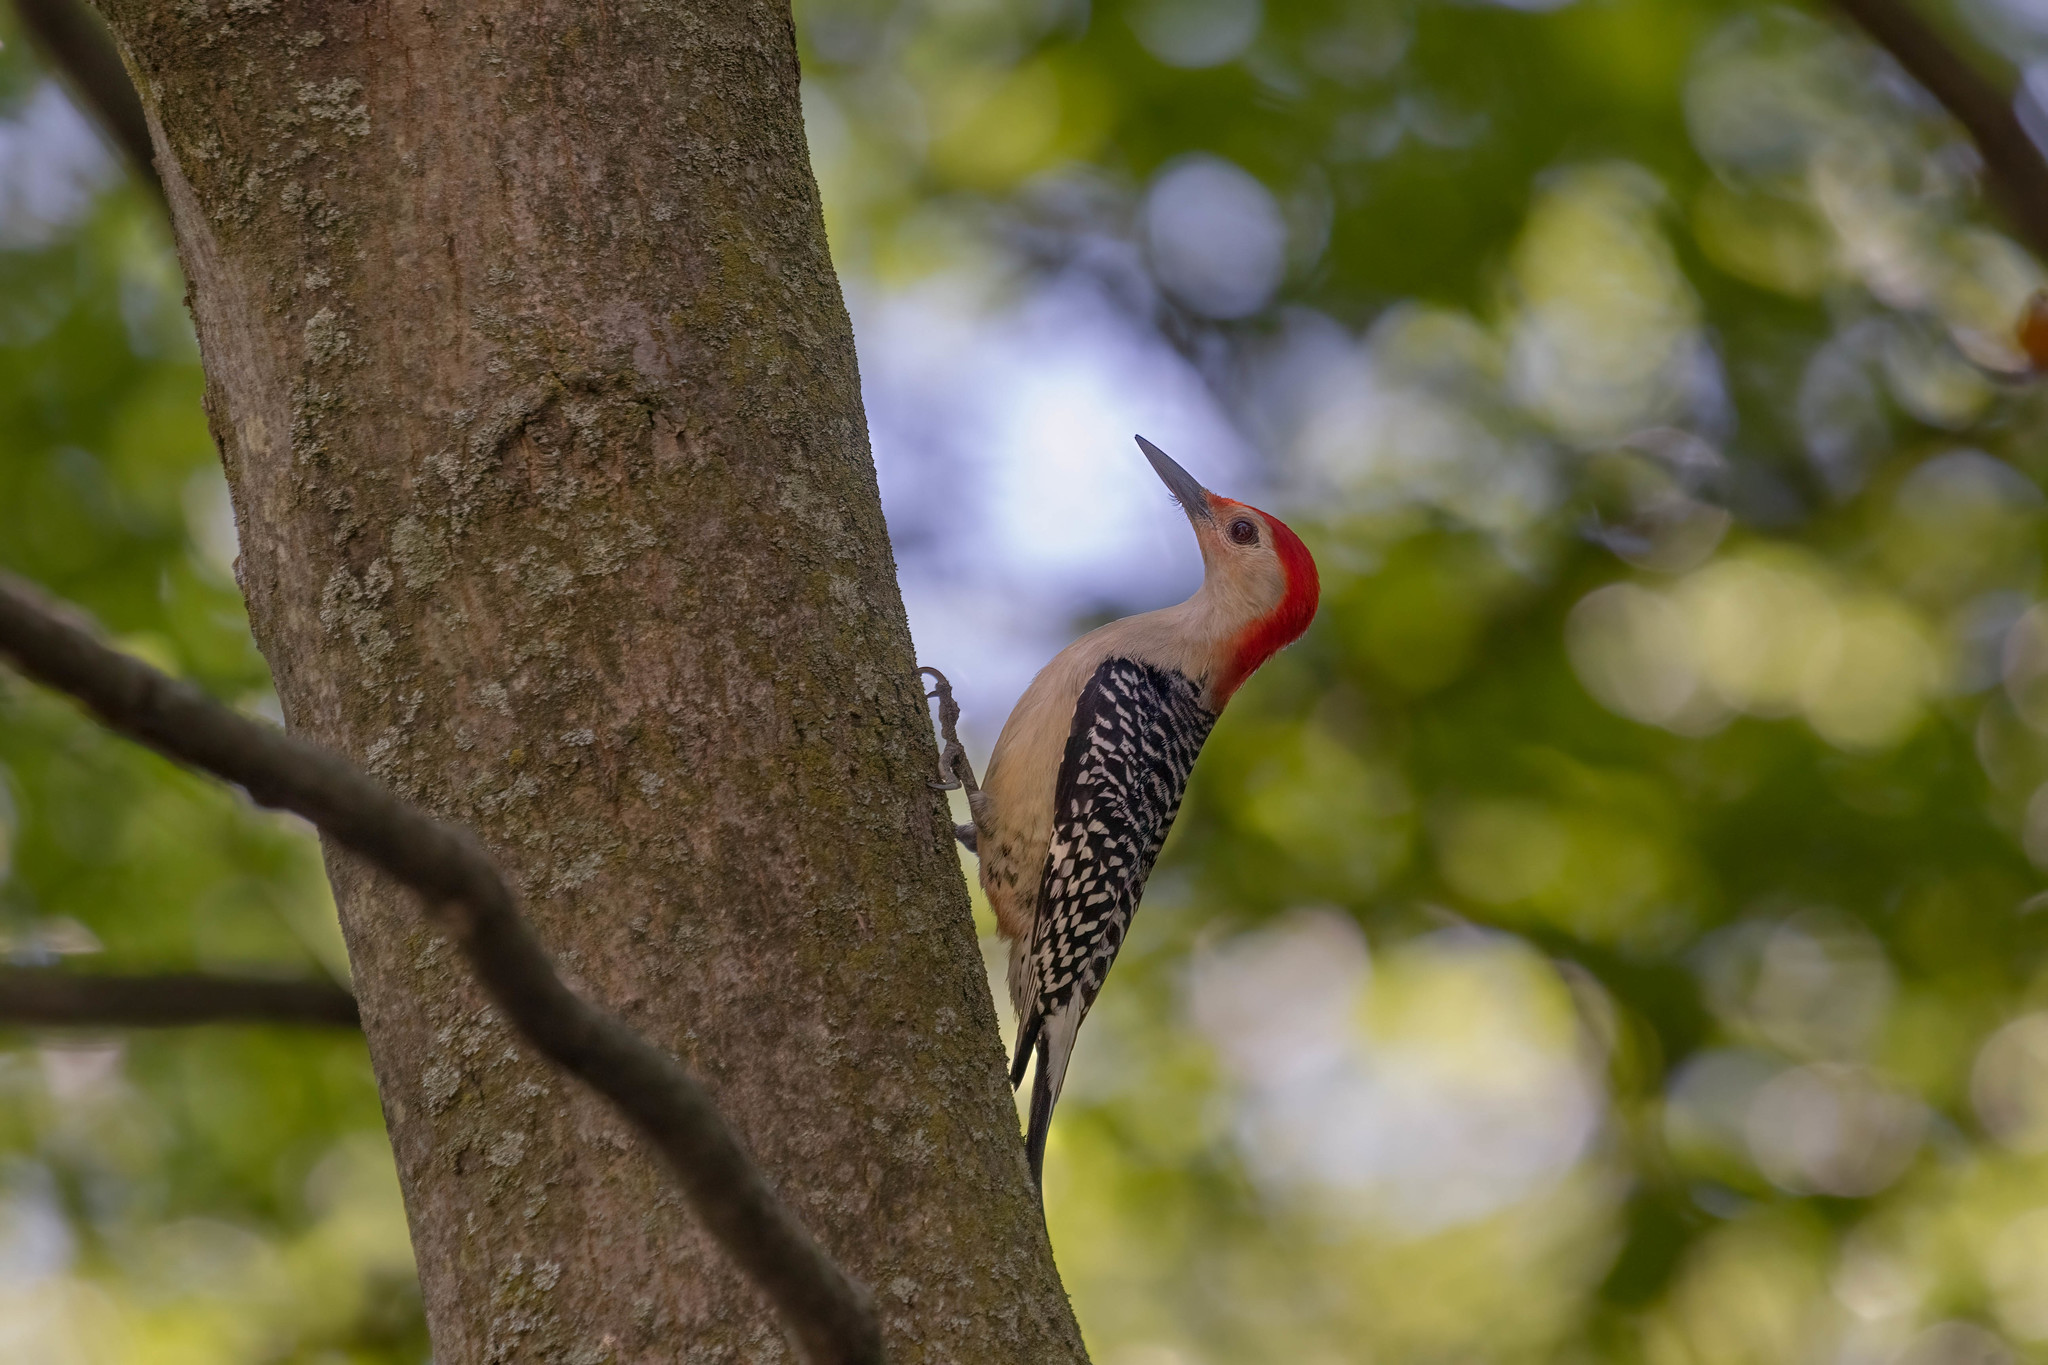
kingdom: Animalia
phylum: Chordata
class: Aves
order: Piciformes
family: Picidae
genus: Melanerpes
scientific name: Melanerpes carolinus
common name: Red-bellied woodpecker
